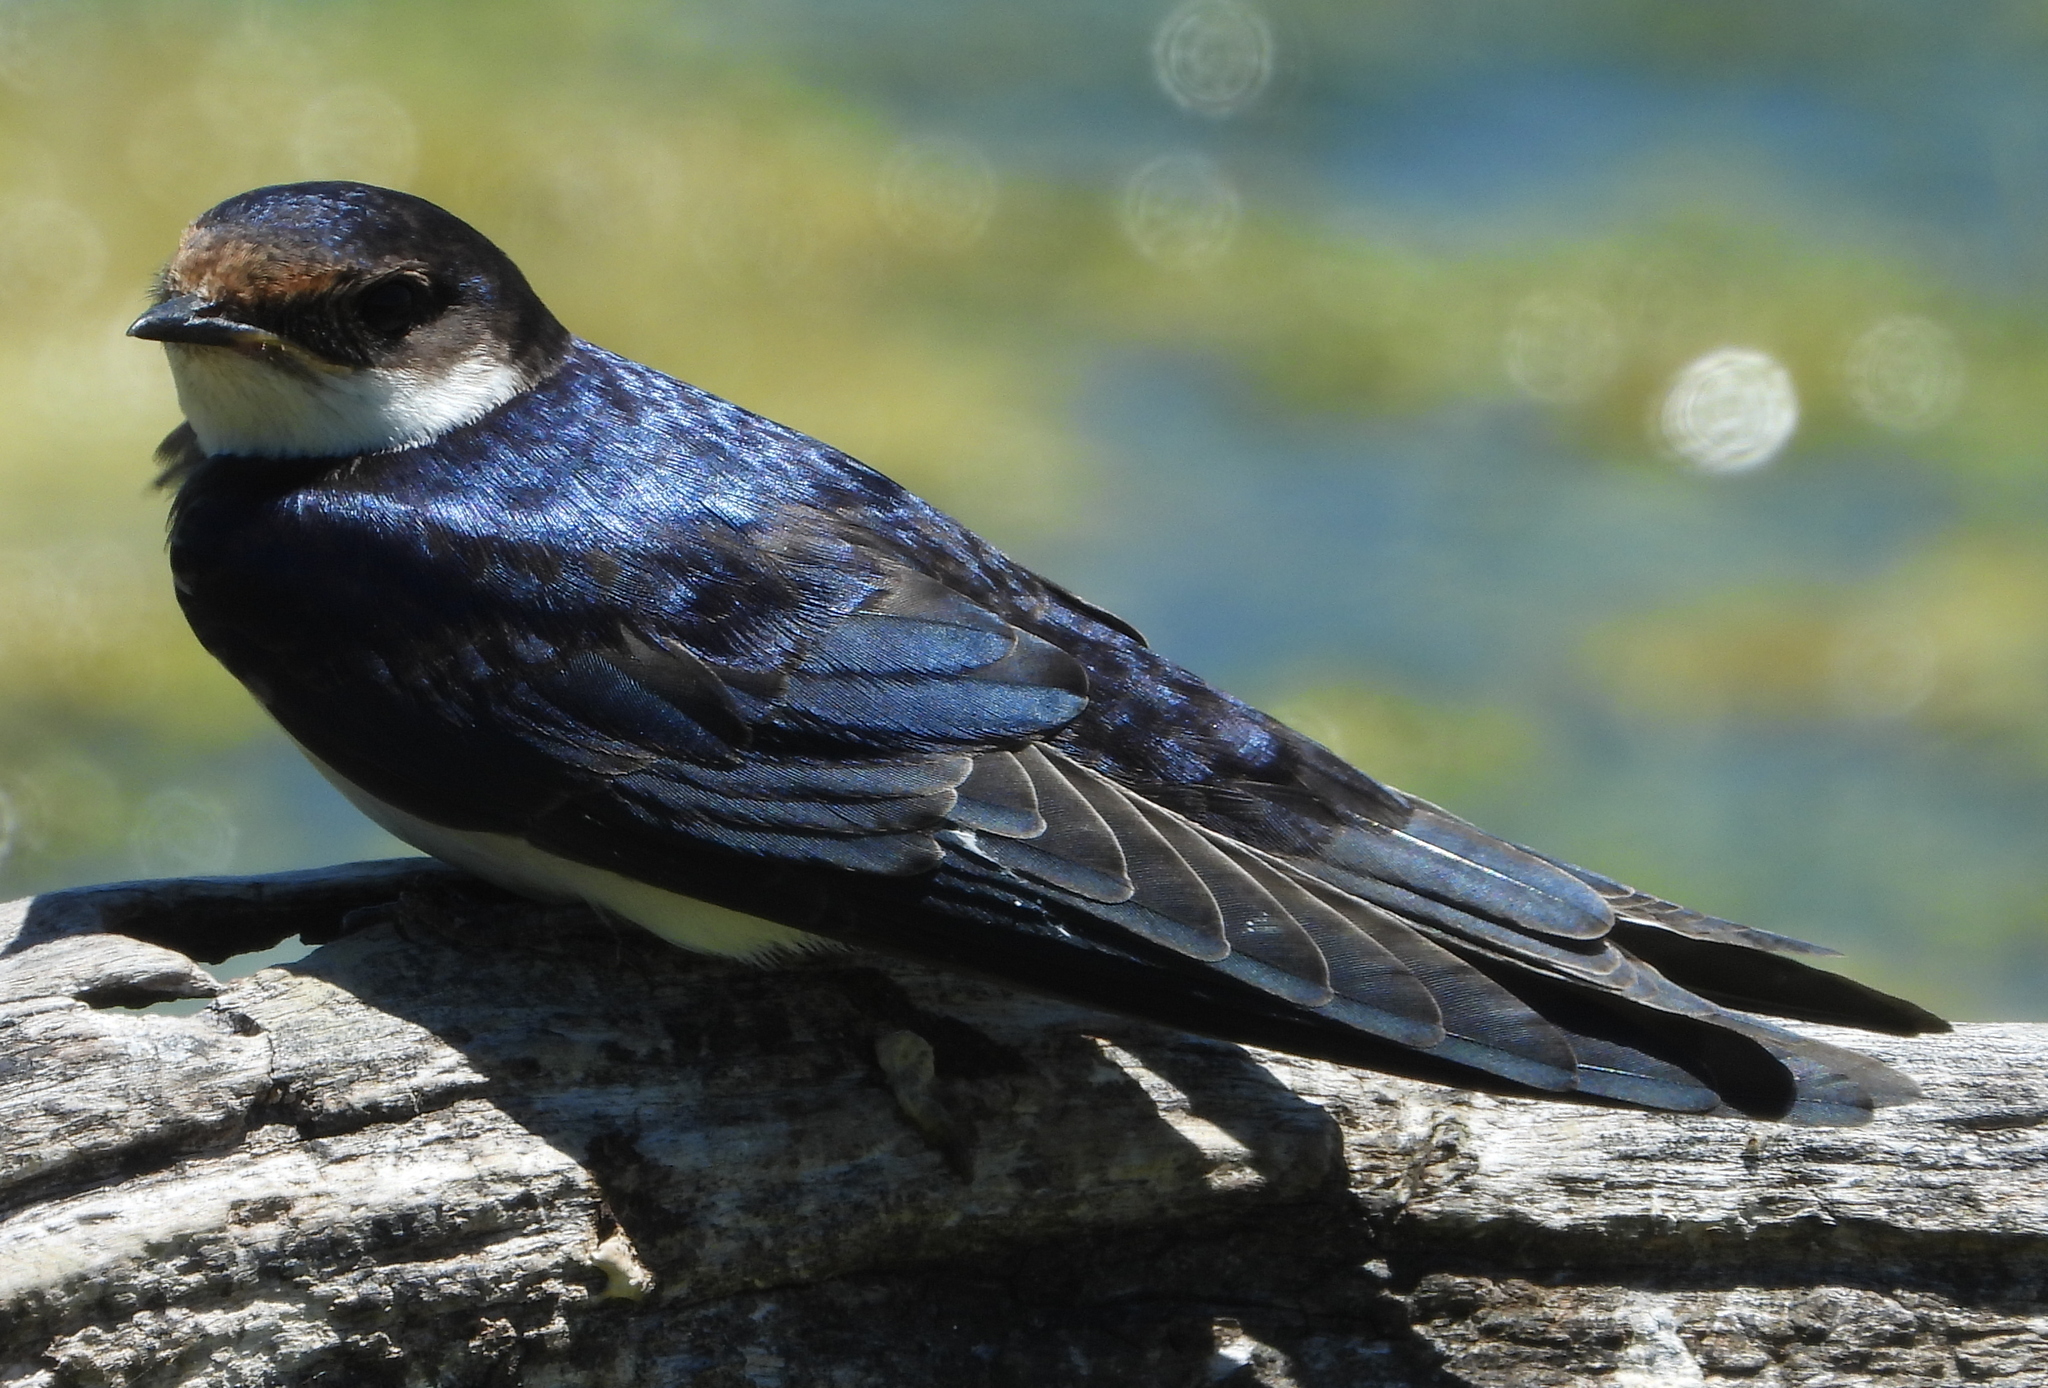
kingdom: Animalia
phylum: Chordata
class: Aves
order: Passeriformes
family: Hirundinidae
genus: Hirundo
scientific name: Hirundo albigularis
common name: White-throated swallow
